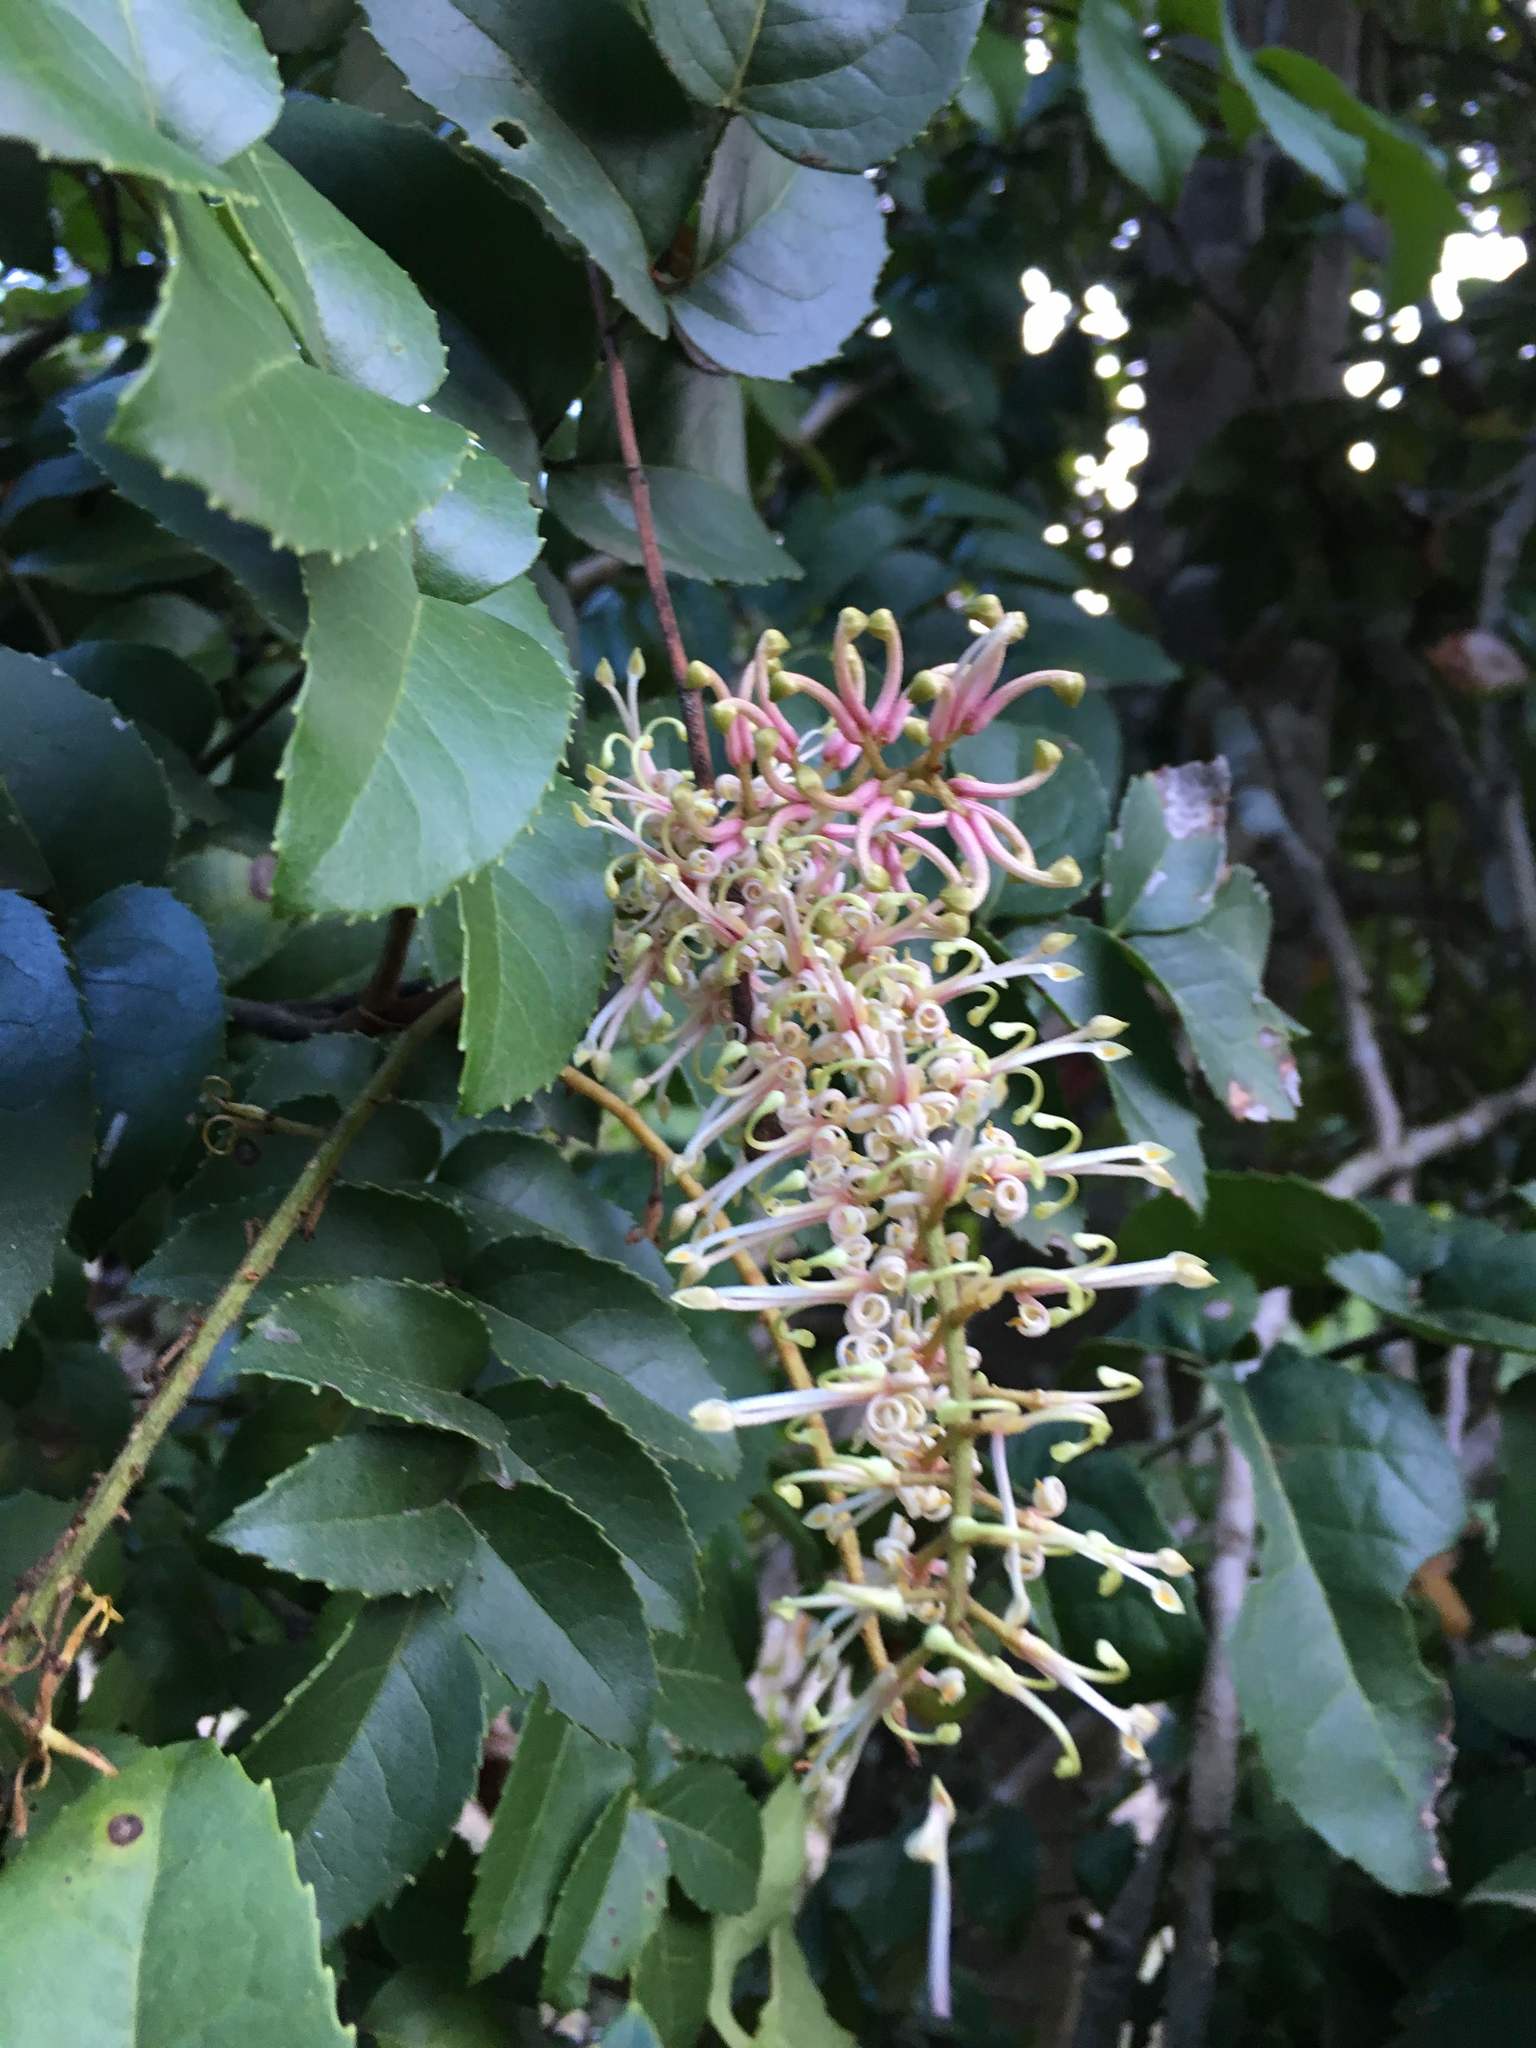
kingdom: Plantae
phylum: Tracheophyta
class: Magnoliopsida
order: Proteales
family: Proteaceae
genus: Gevuina
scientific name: Gevuina avellana
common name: Chilean hazel
